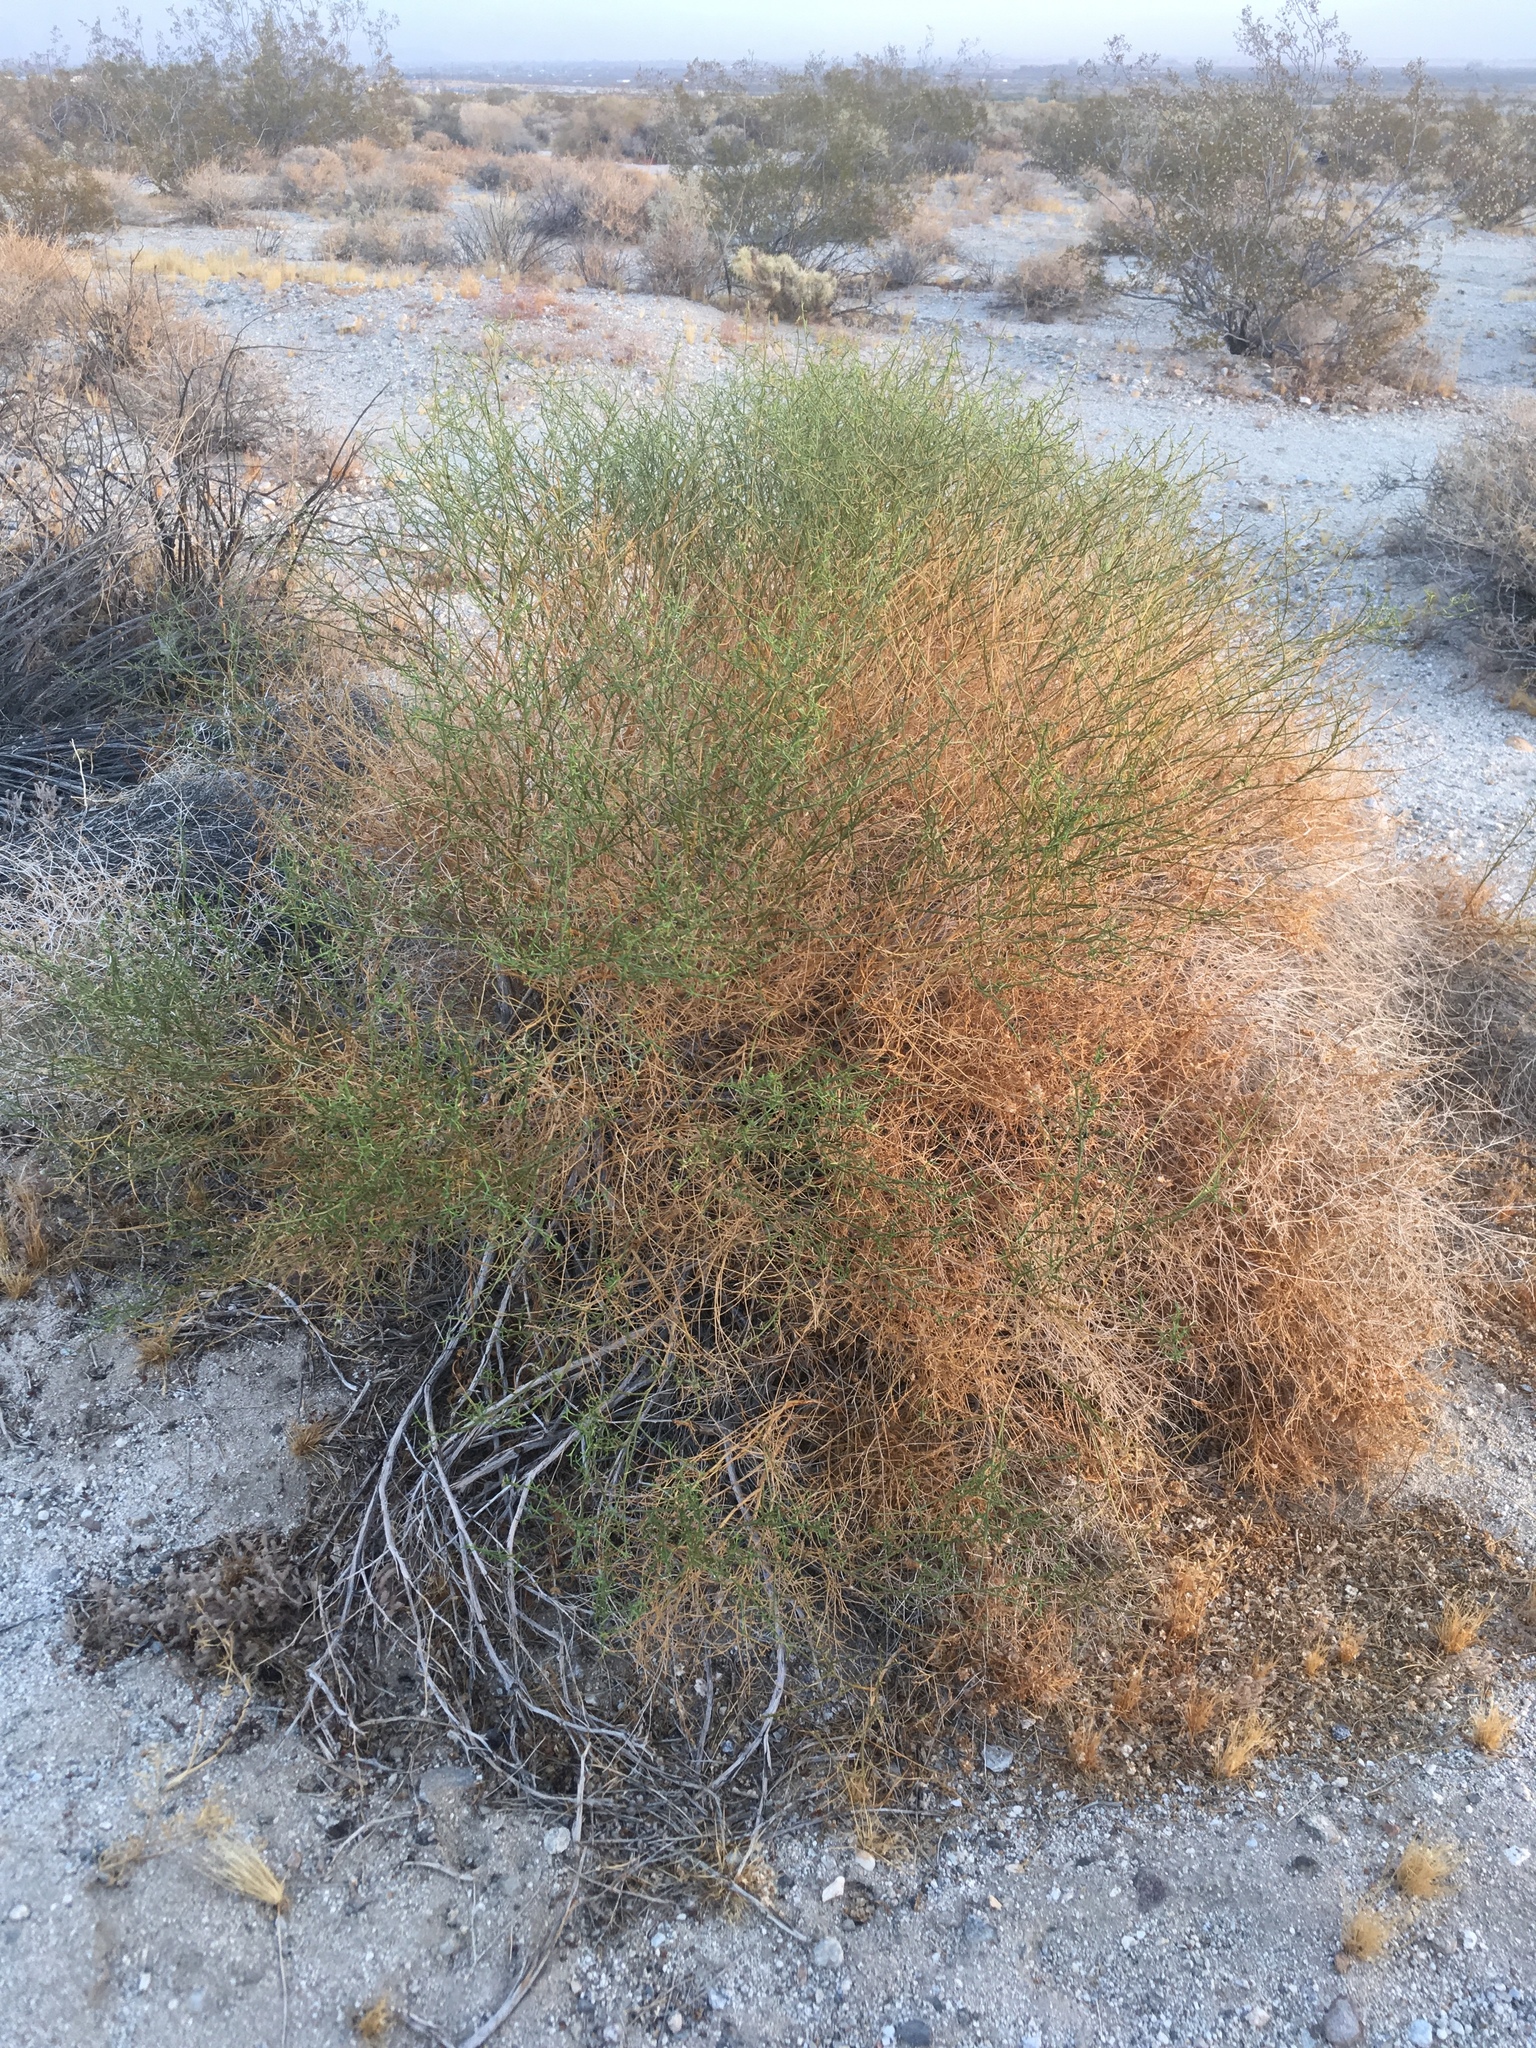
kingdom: Plantae
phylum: Tracheophyta
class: Magnoliopsida
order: Asterales
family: Asteraceae
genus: Ambrosia
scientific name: Ambrosia salsola
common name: Burrobrush
